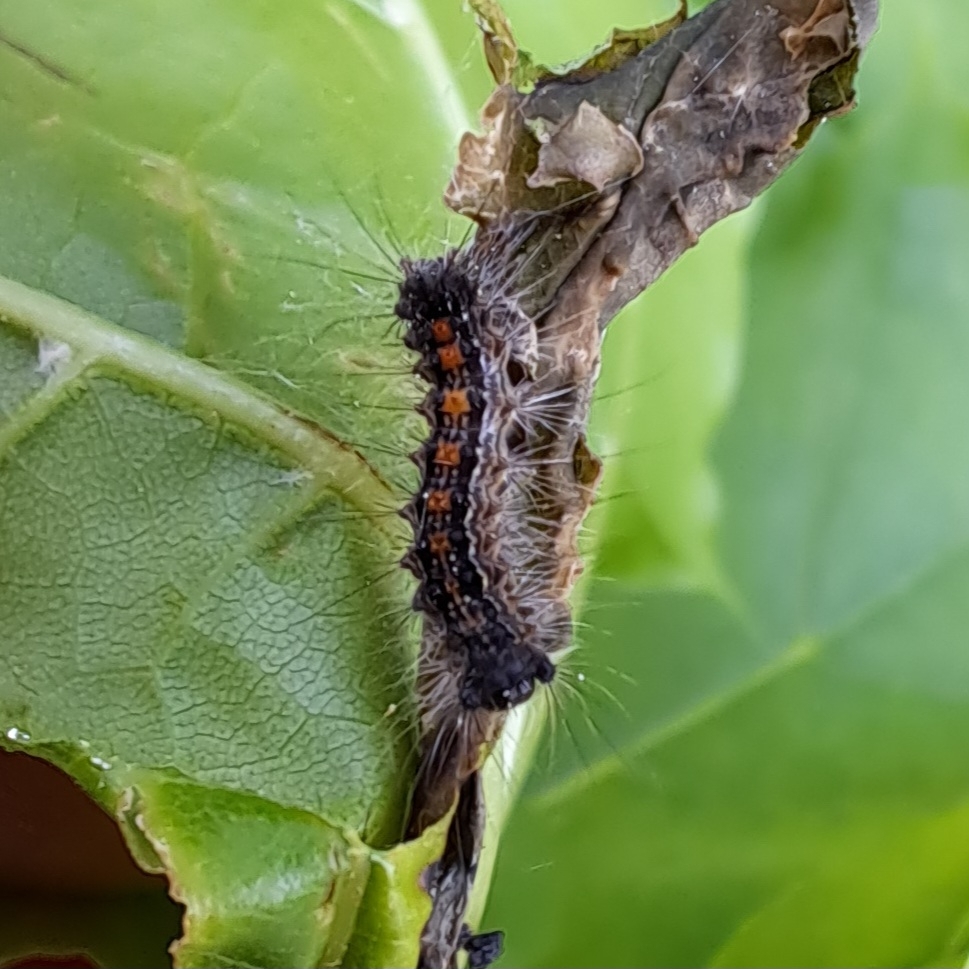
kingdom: Animalia
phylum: Arthropoda
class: Insecta
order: Lepidoptera
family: Erebidae
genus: Lymantria
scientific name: Lymantria dispar
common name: Gypsy moth
